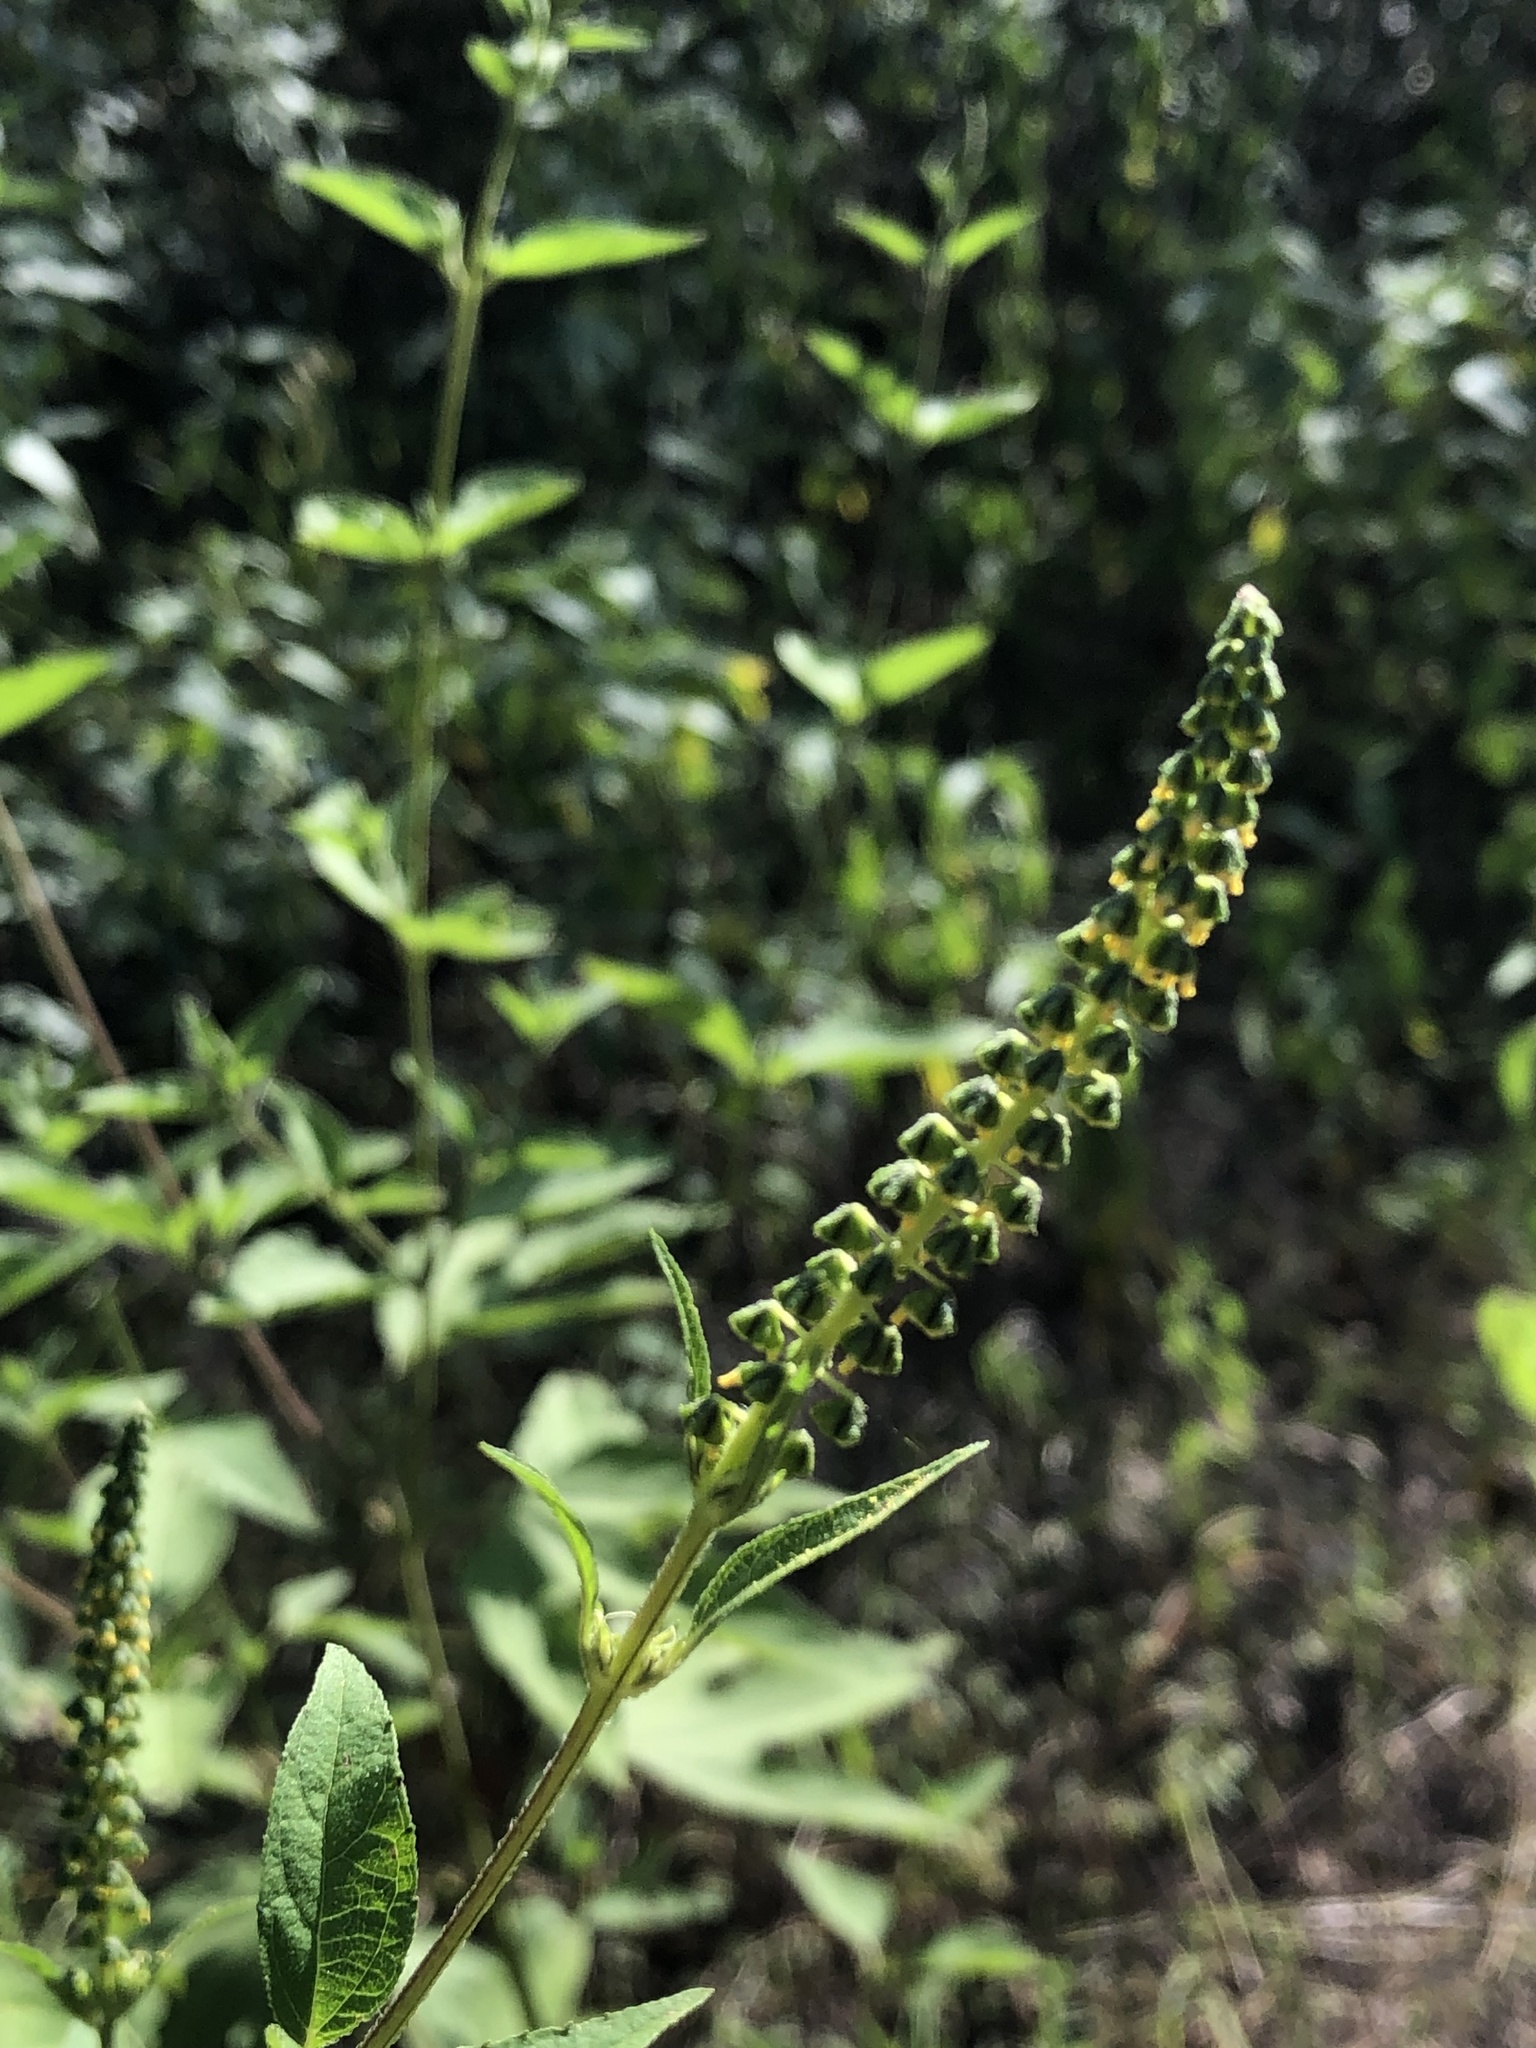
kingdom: Plantae
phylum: Tracheophyta
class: Magnoliopsida
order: Asterales
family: Asteraceae
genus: Ambrosia
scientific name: Ambrosia trifida
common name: Giant ragweed
